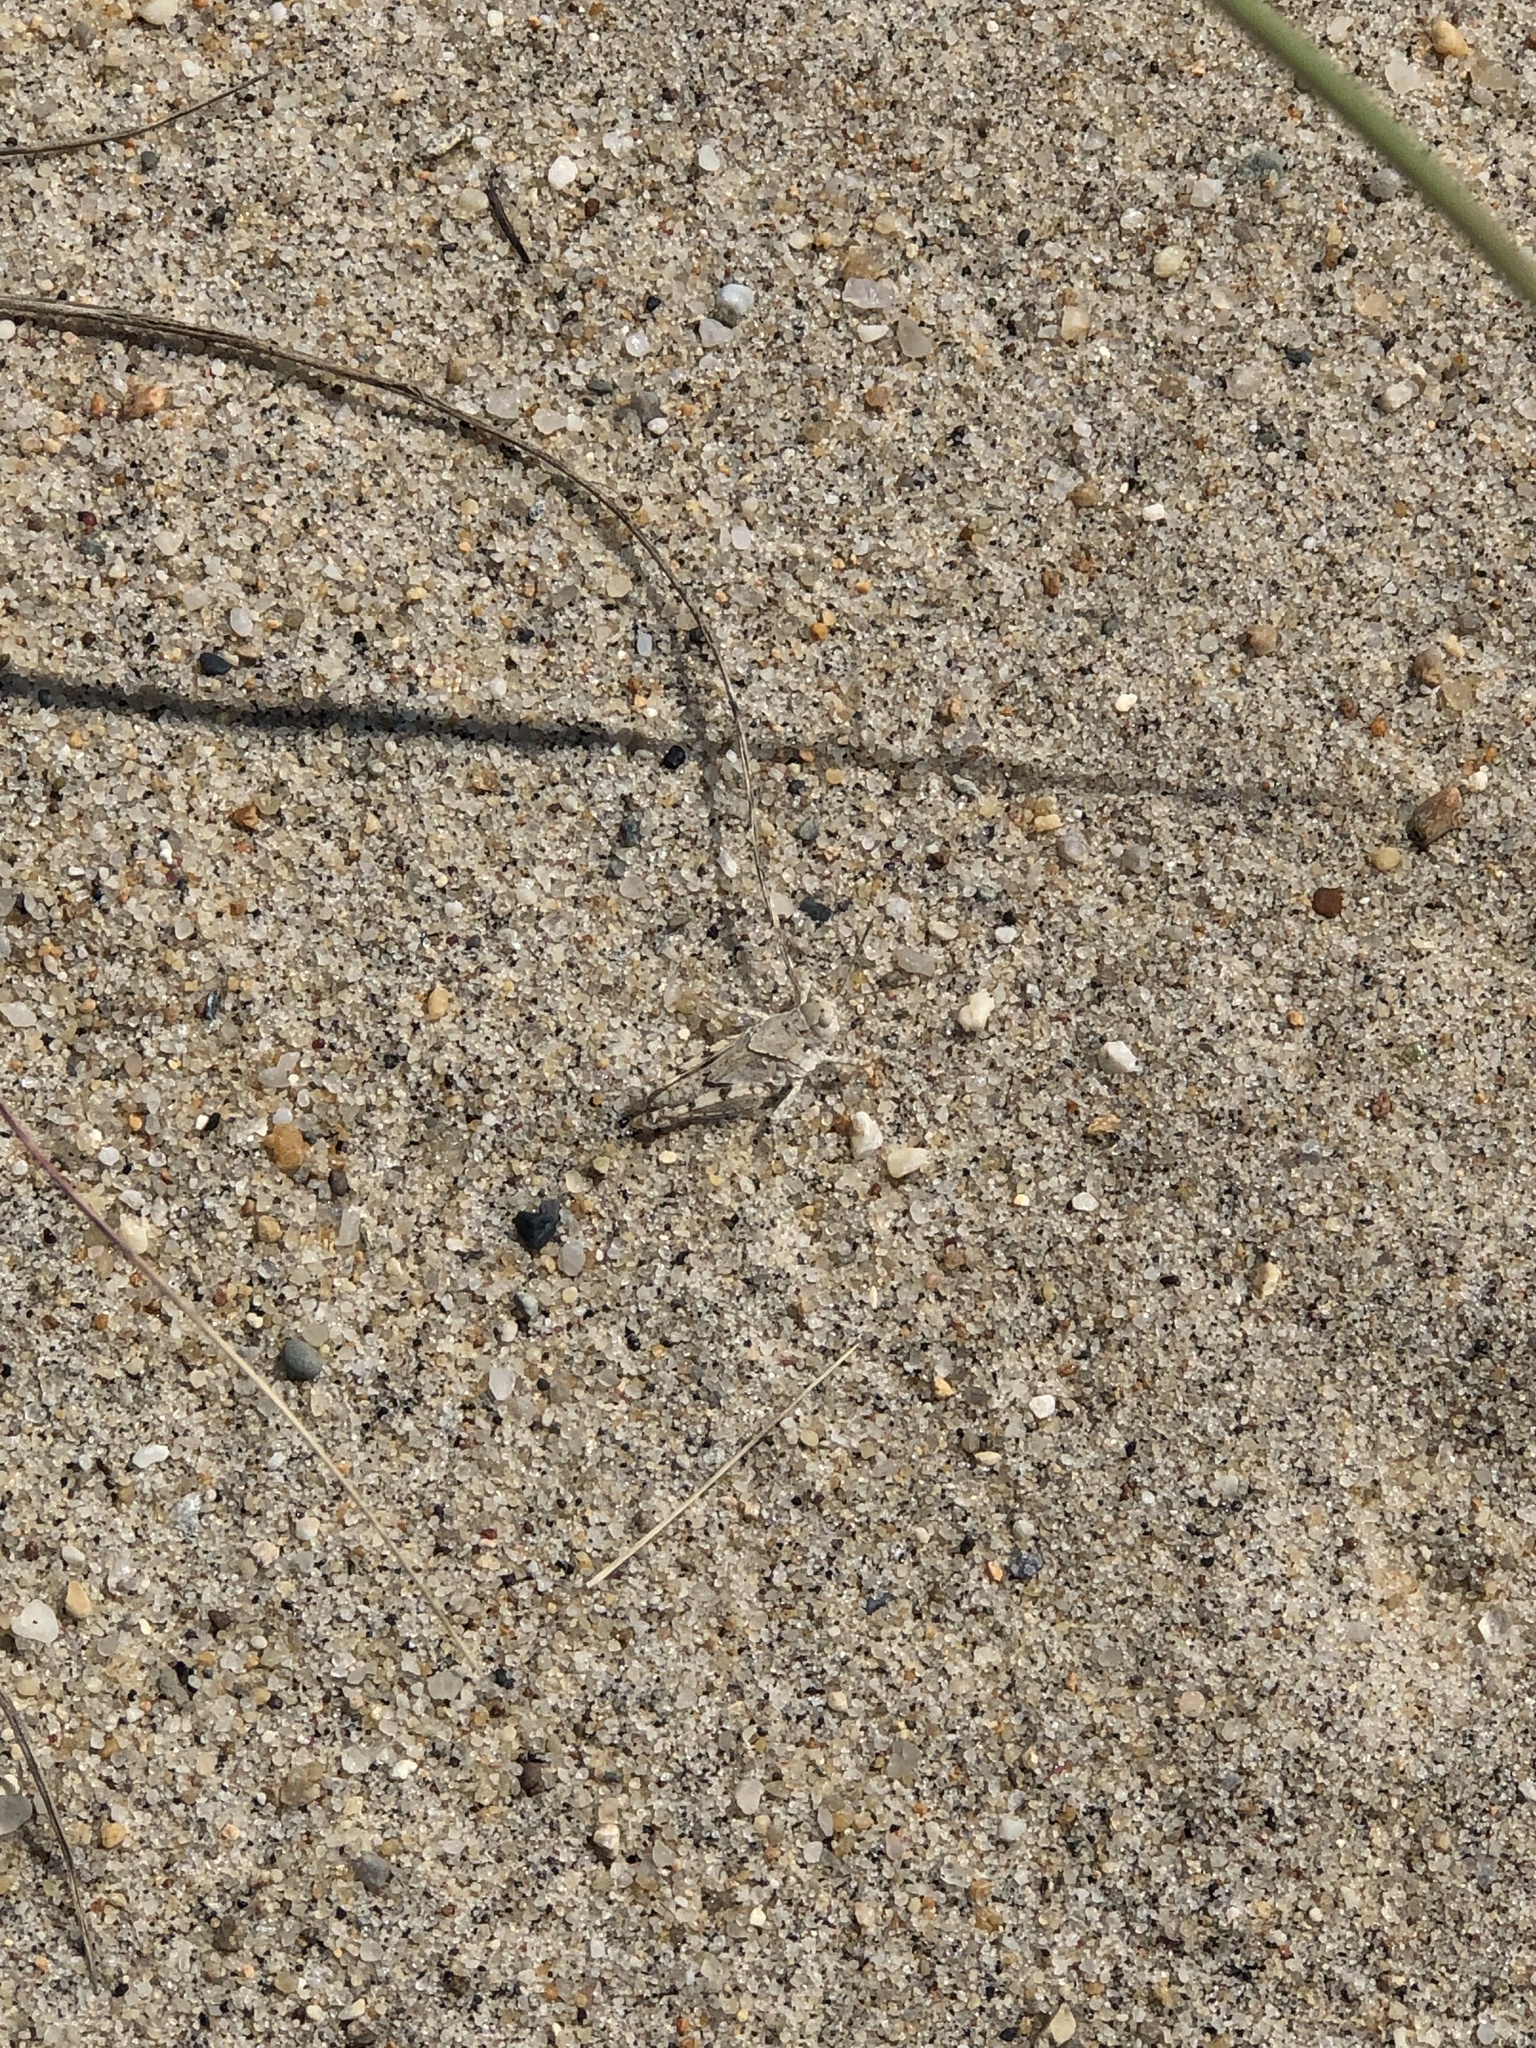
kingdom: Animalia
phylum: Arthropoda
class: Insecta
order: Orthoptera
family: Acrididae
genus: Trimerotropis
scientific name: Trimerotropis maritima
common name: Seaside locust
